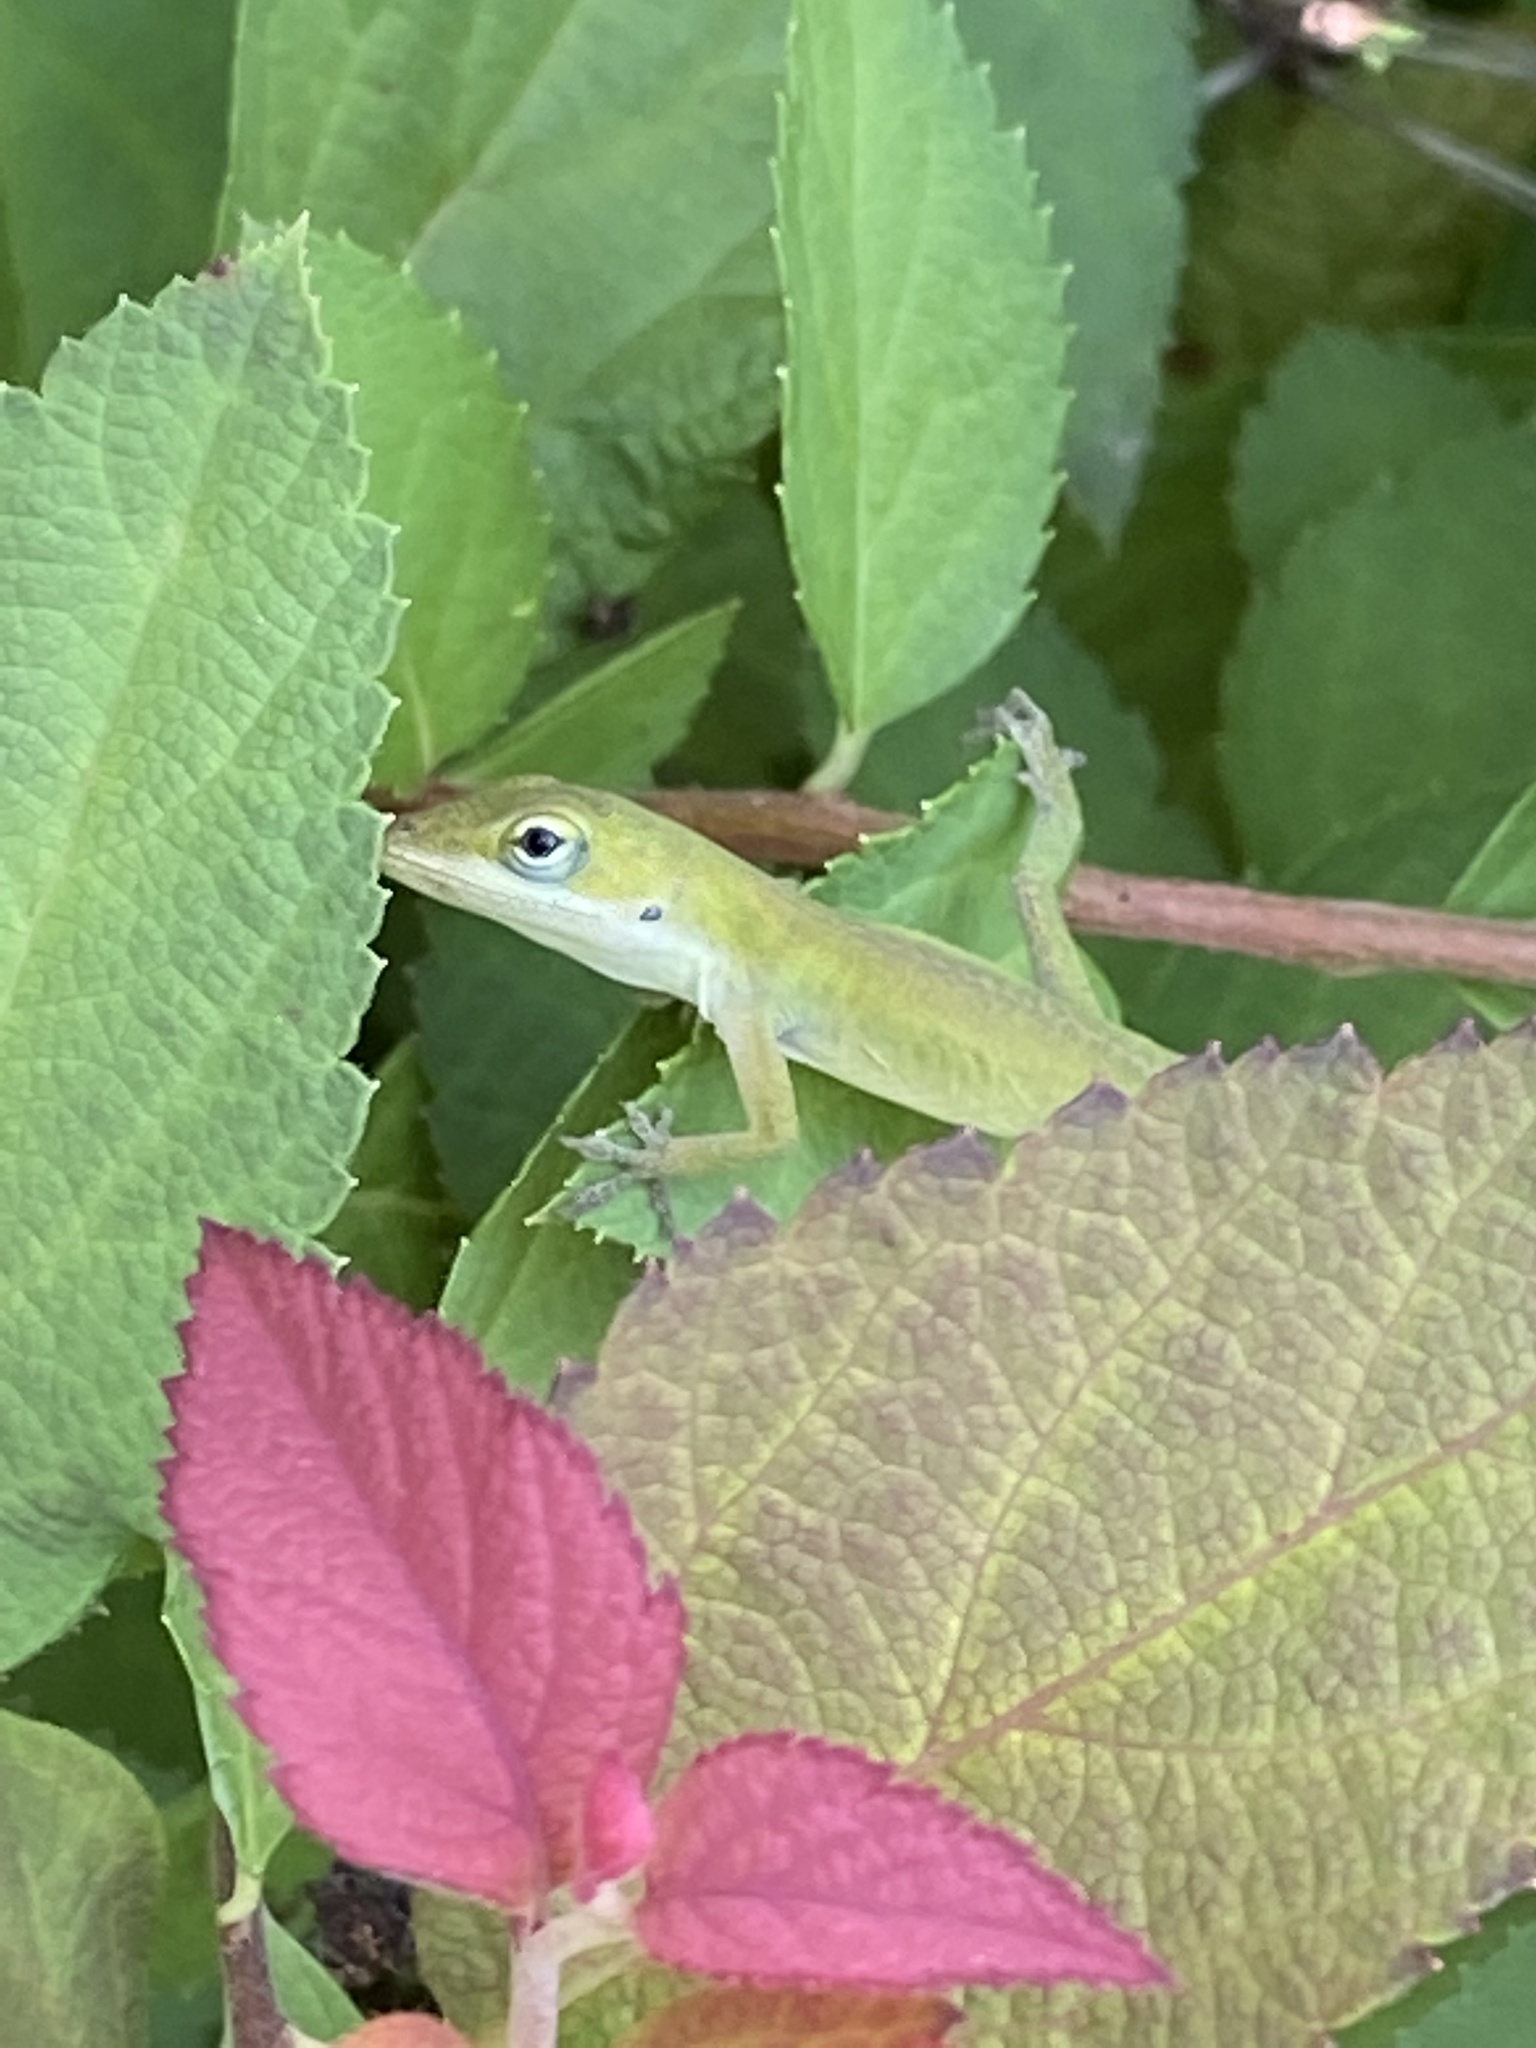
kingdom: Animalia
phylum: Chordata
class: Squamata
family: Dactyloidae
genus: Anolis
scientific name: Anolis carolinensis
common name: Green anole
